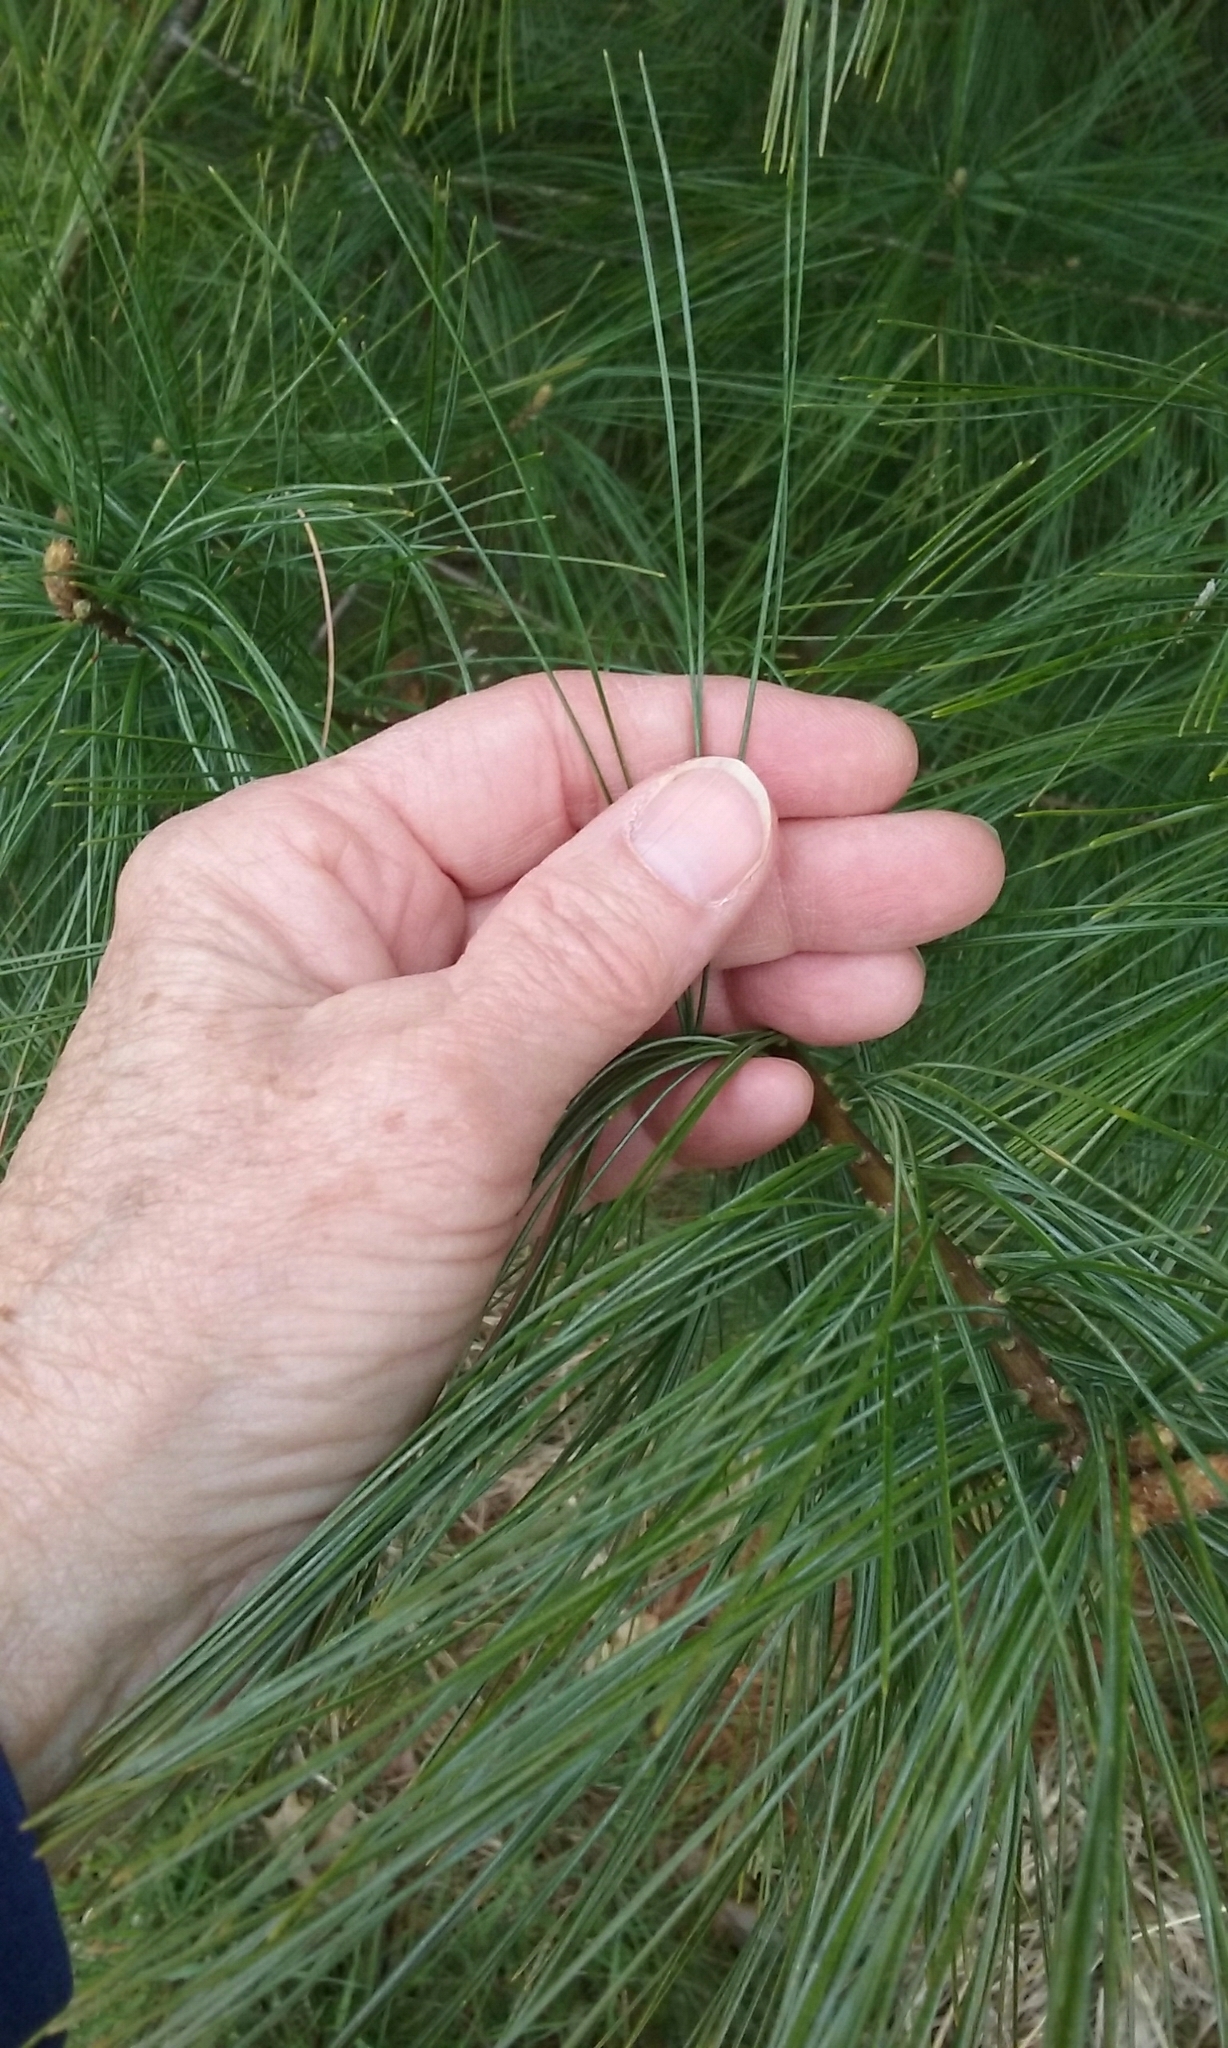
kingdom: Plantae
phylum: Tracheophyta
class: Pinopsida
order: Pinales
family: Pinaceae
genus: Pinus
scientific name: Pinus strobus
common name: Weymouth pine
